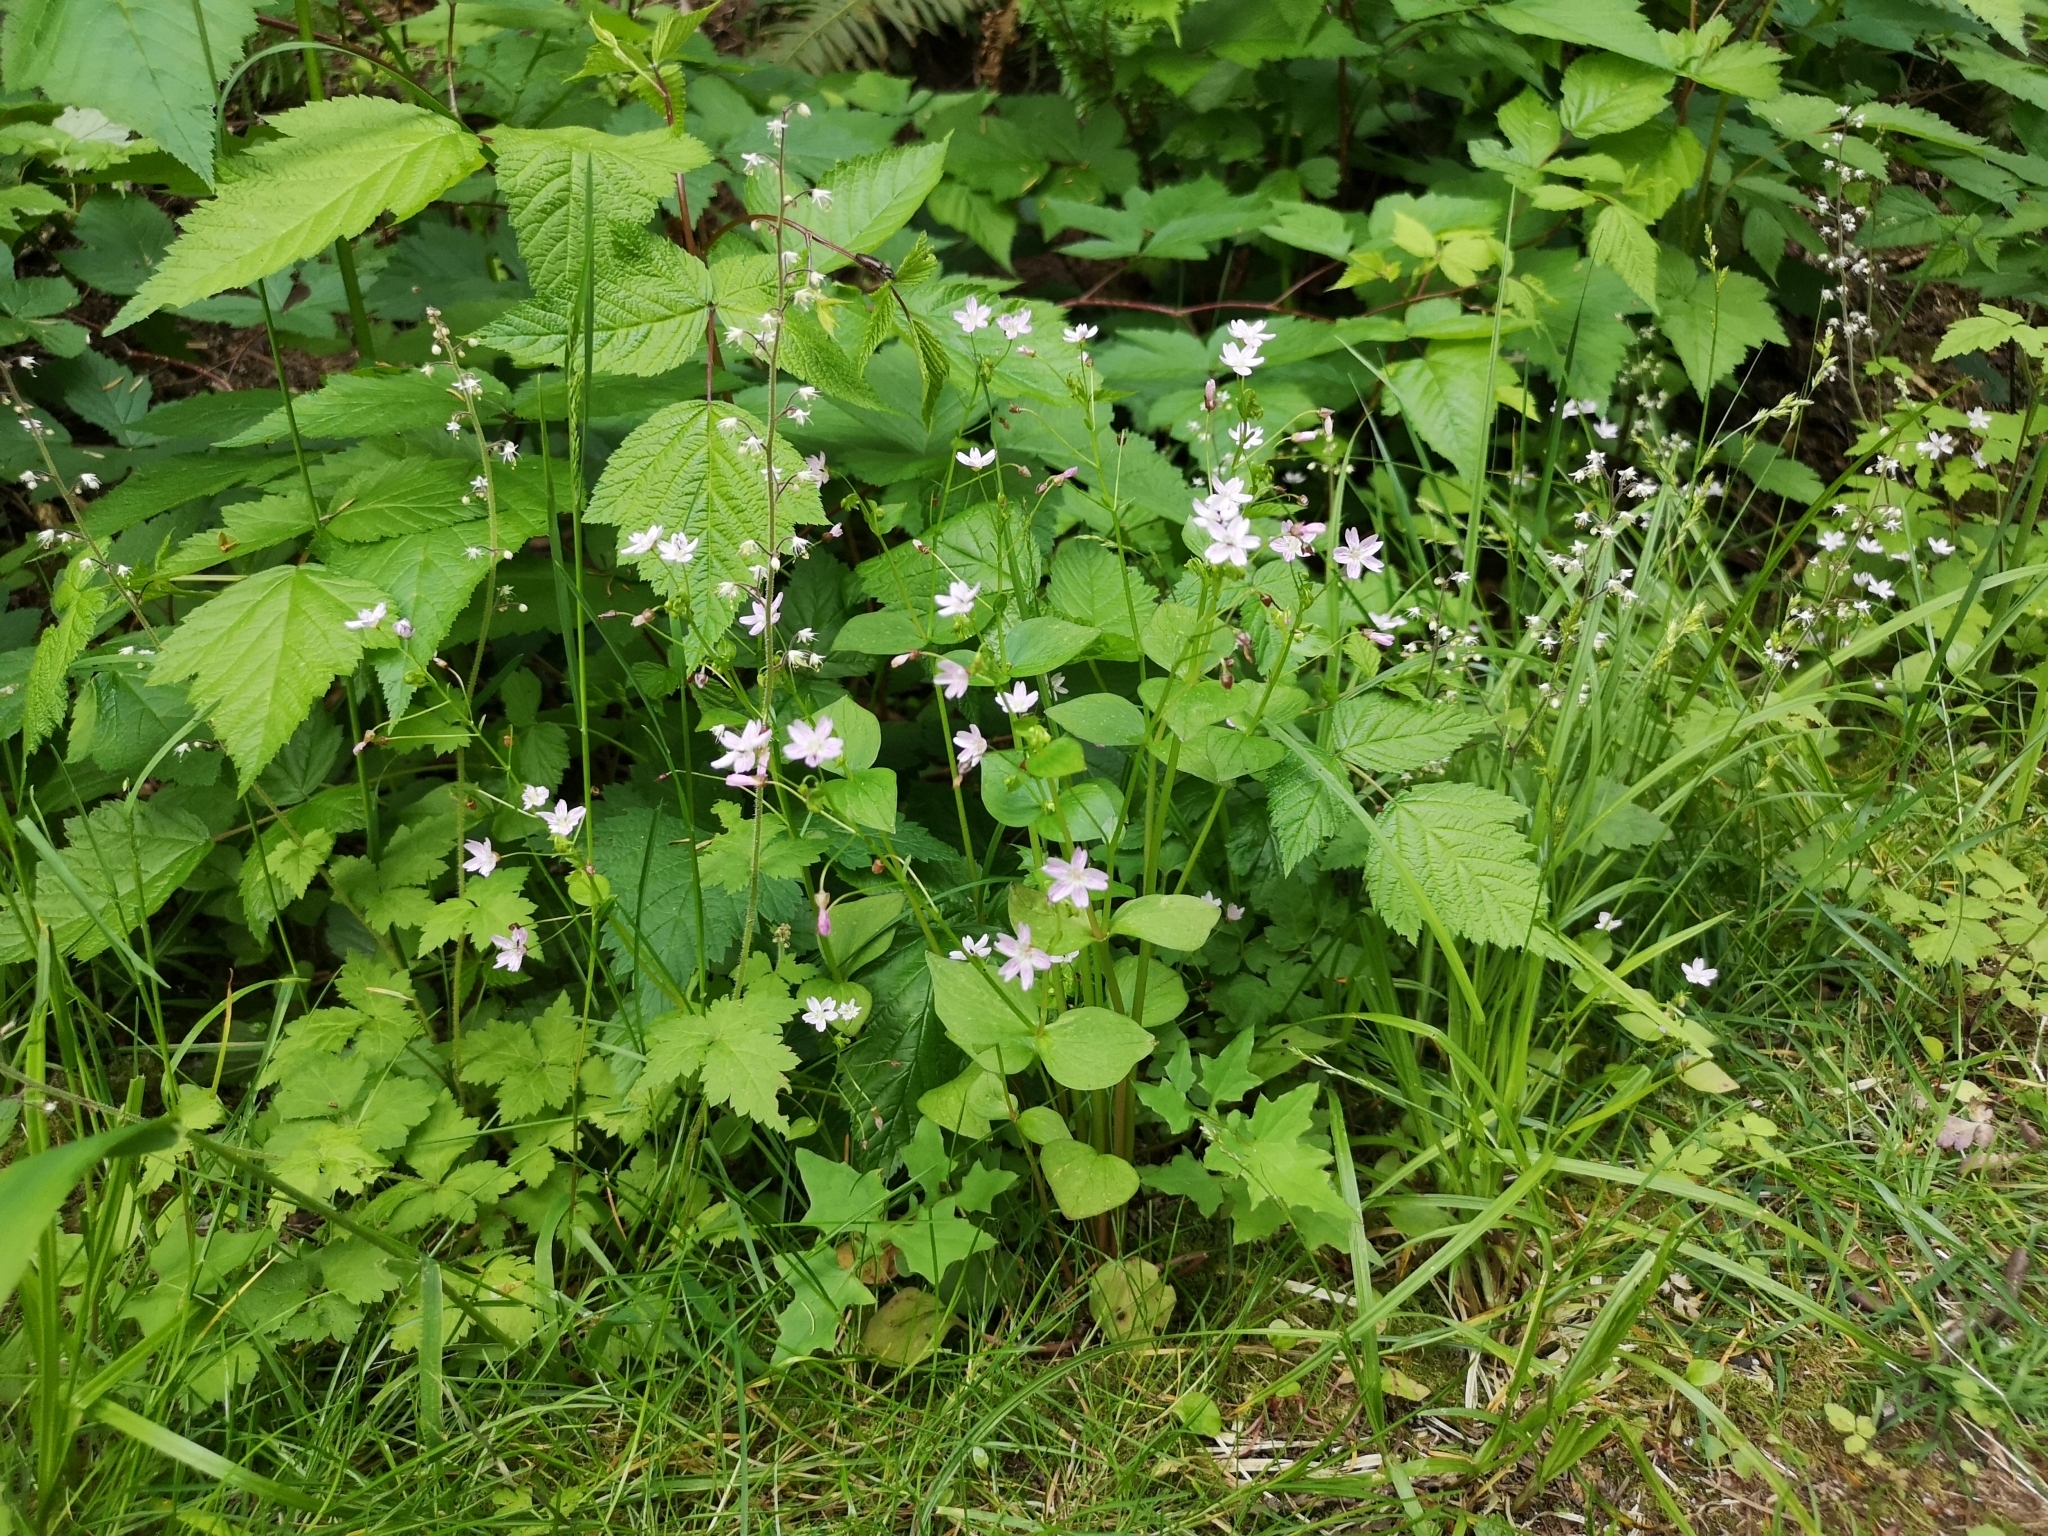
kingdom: Plantae
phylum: Tracheophyta
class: Magnoliopsida
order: Caryophyllales
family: Montiaceae
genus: Claytonia
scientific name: Claytonia sibirica
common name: Pink purslane
